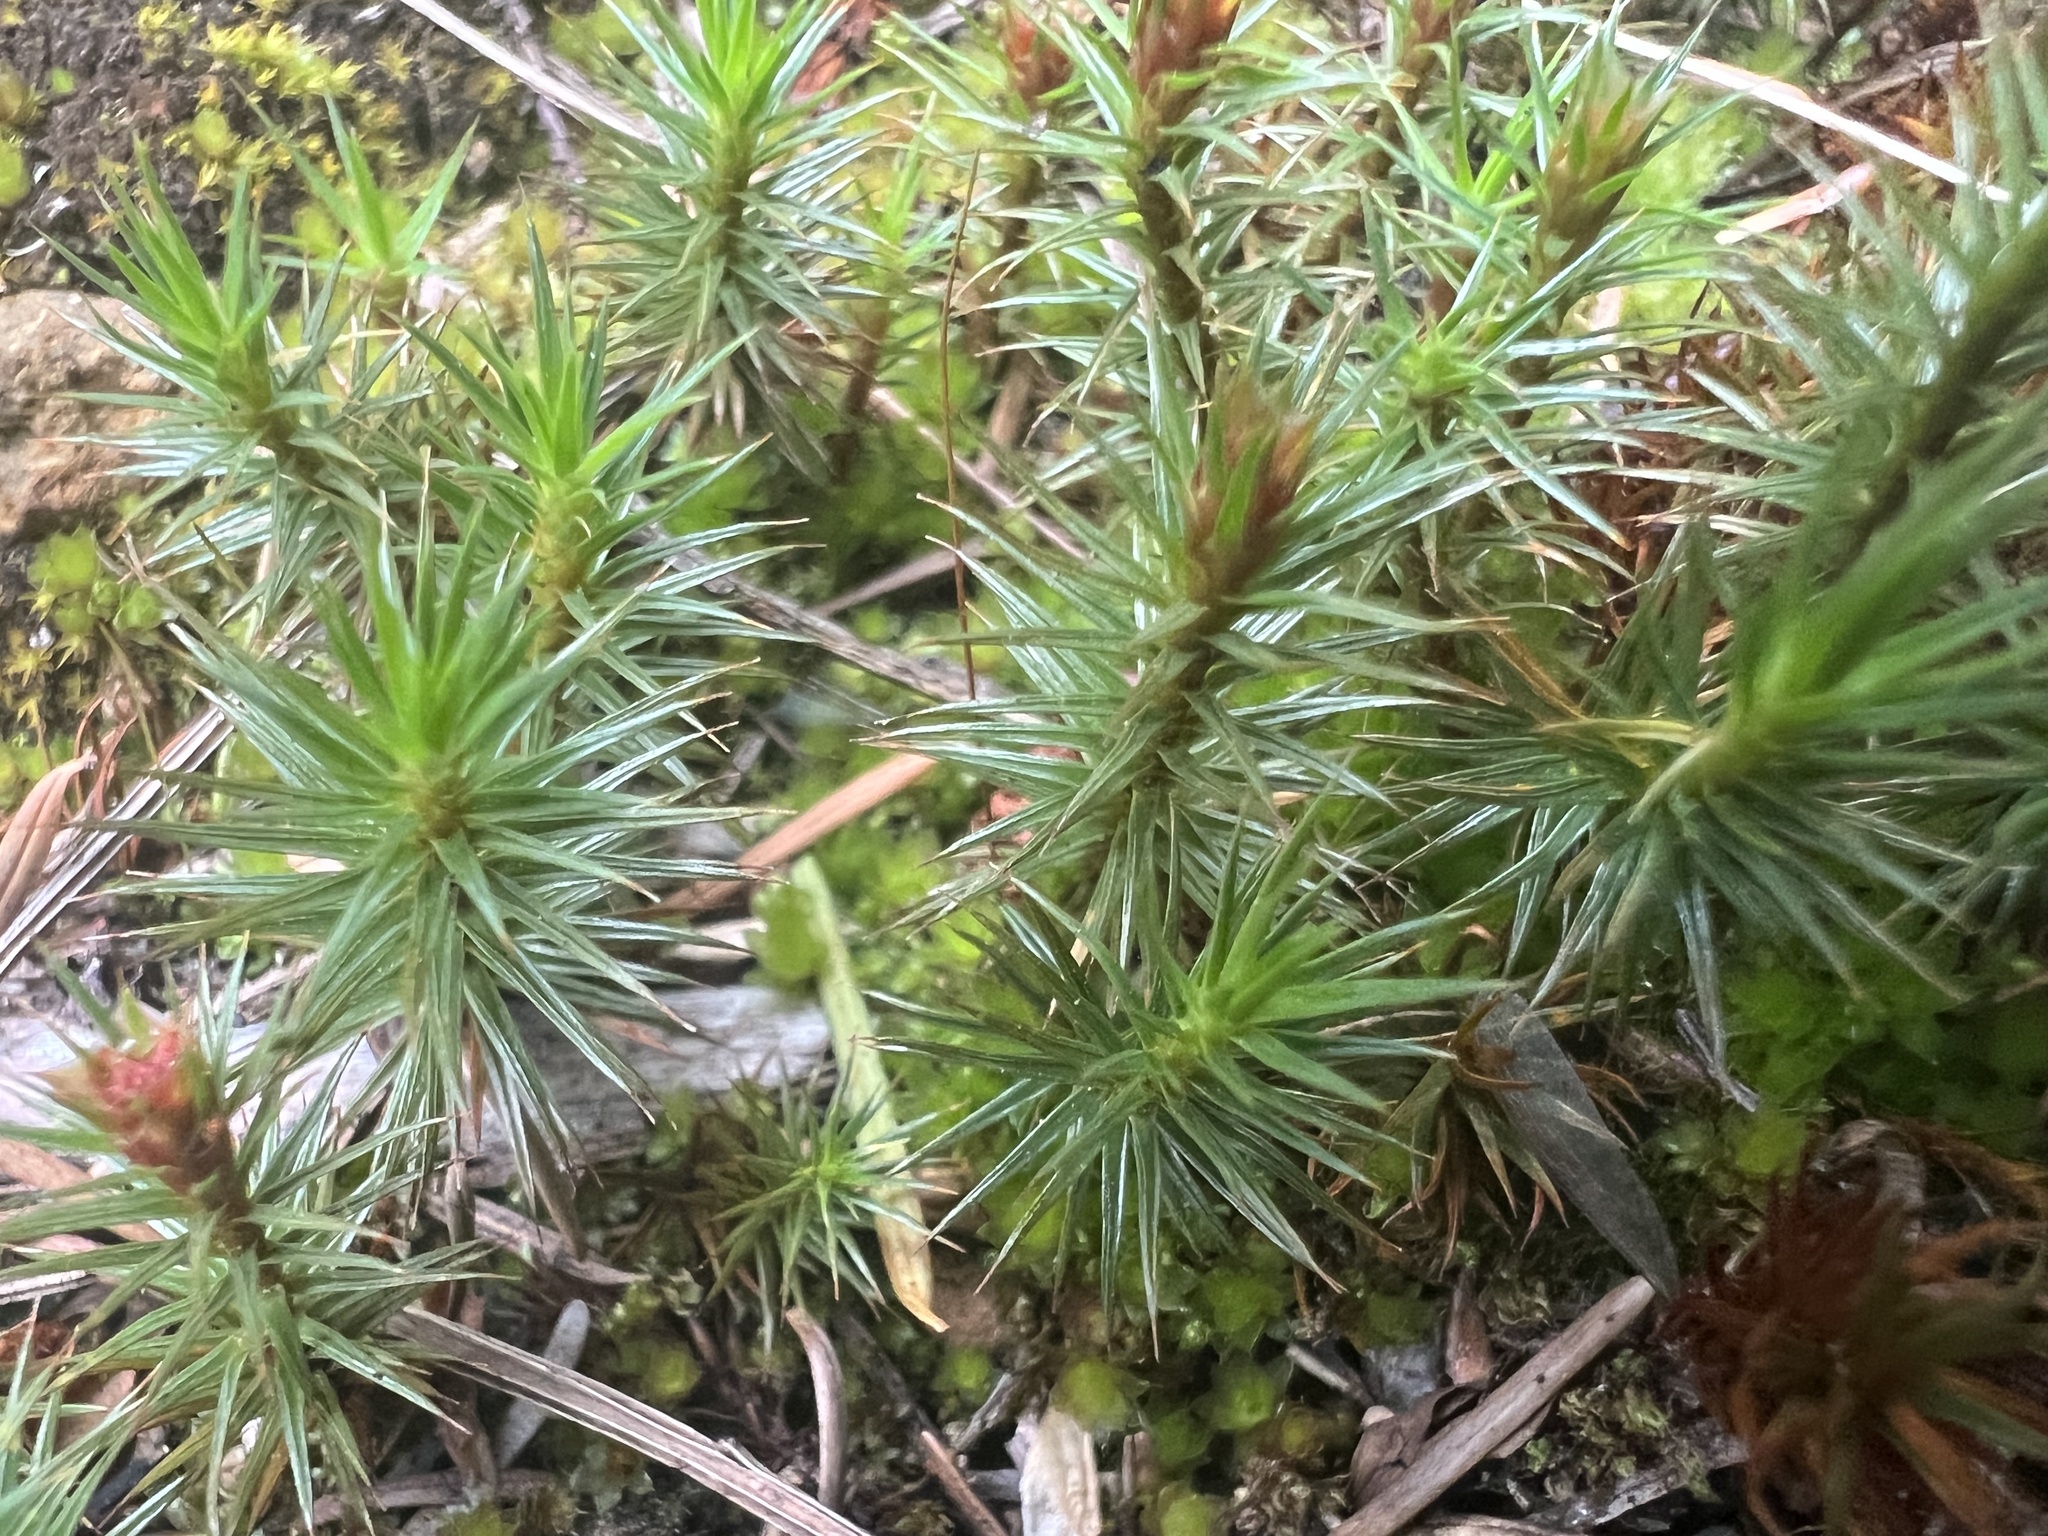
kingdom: Plantae
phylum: Bryophyta
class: Polytrichopsida
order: Polytrichales
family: Polytrichaceae
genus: Polytrichum
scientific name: Polytrichum juniperinum
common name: Juniper haircap moss
